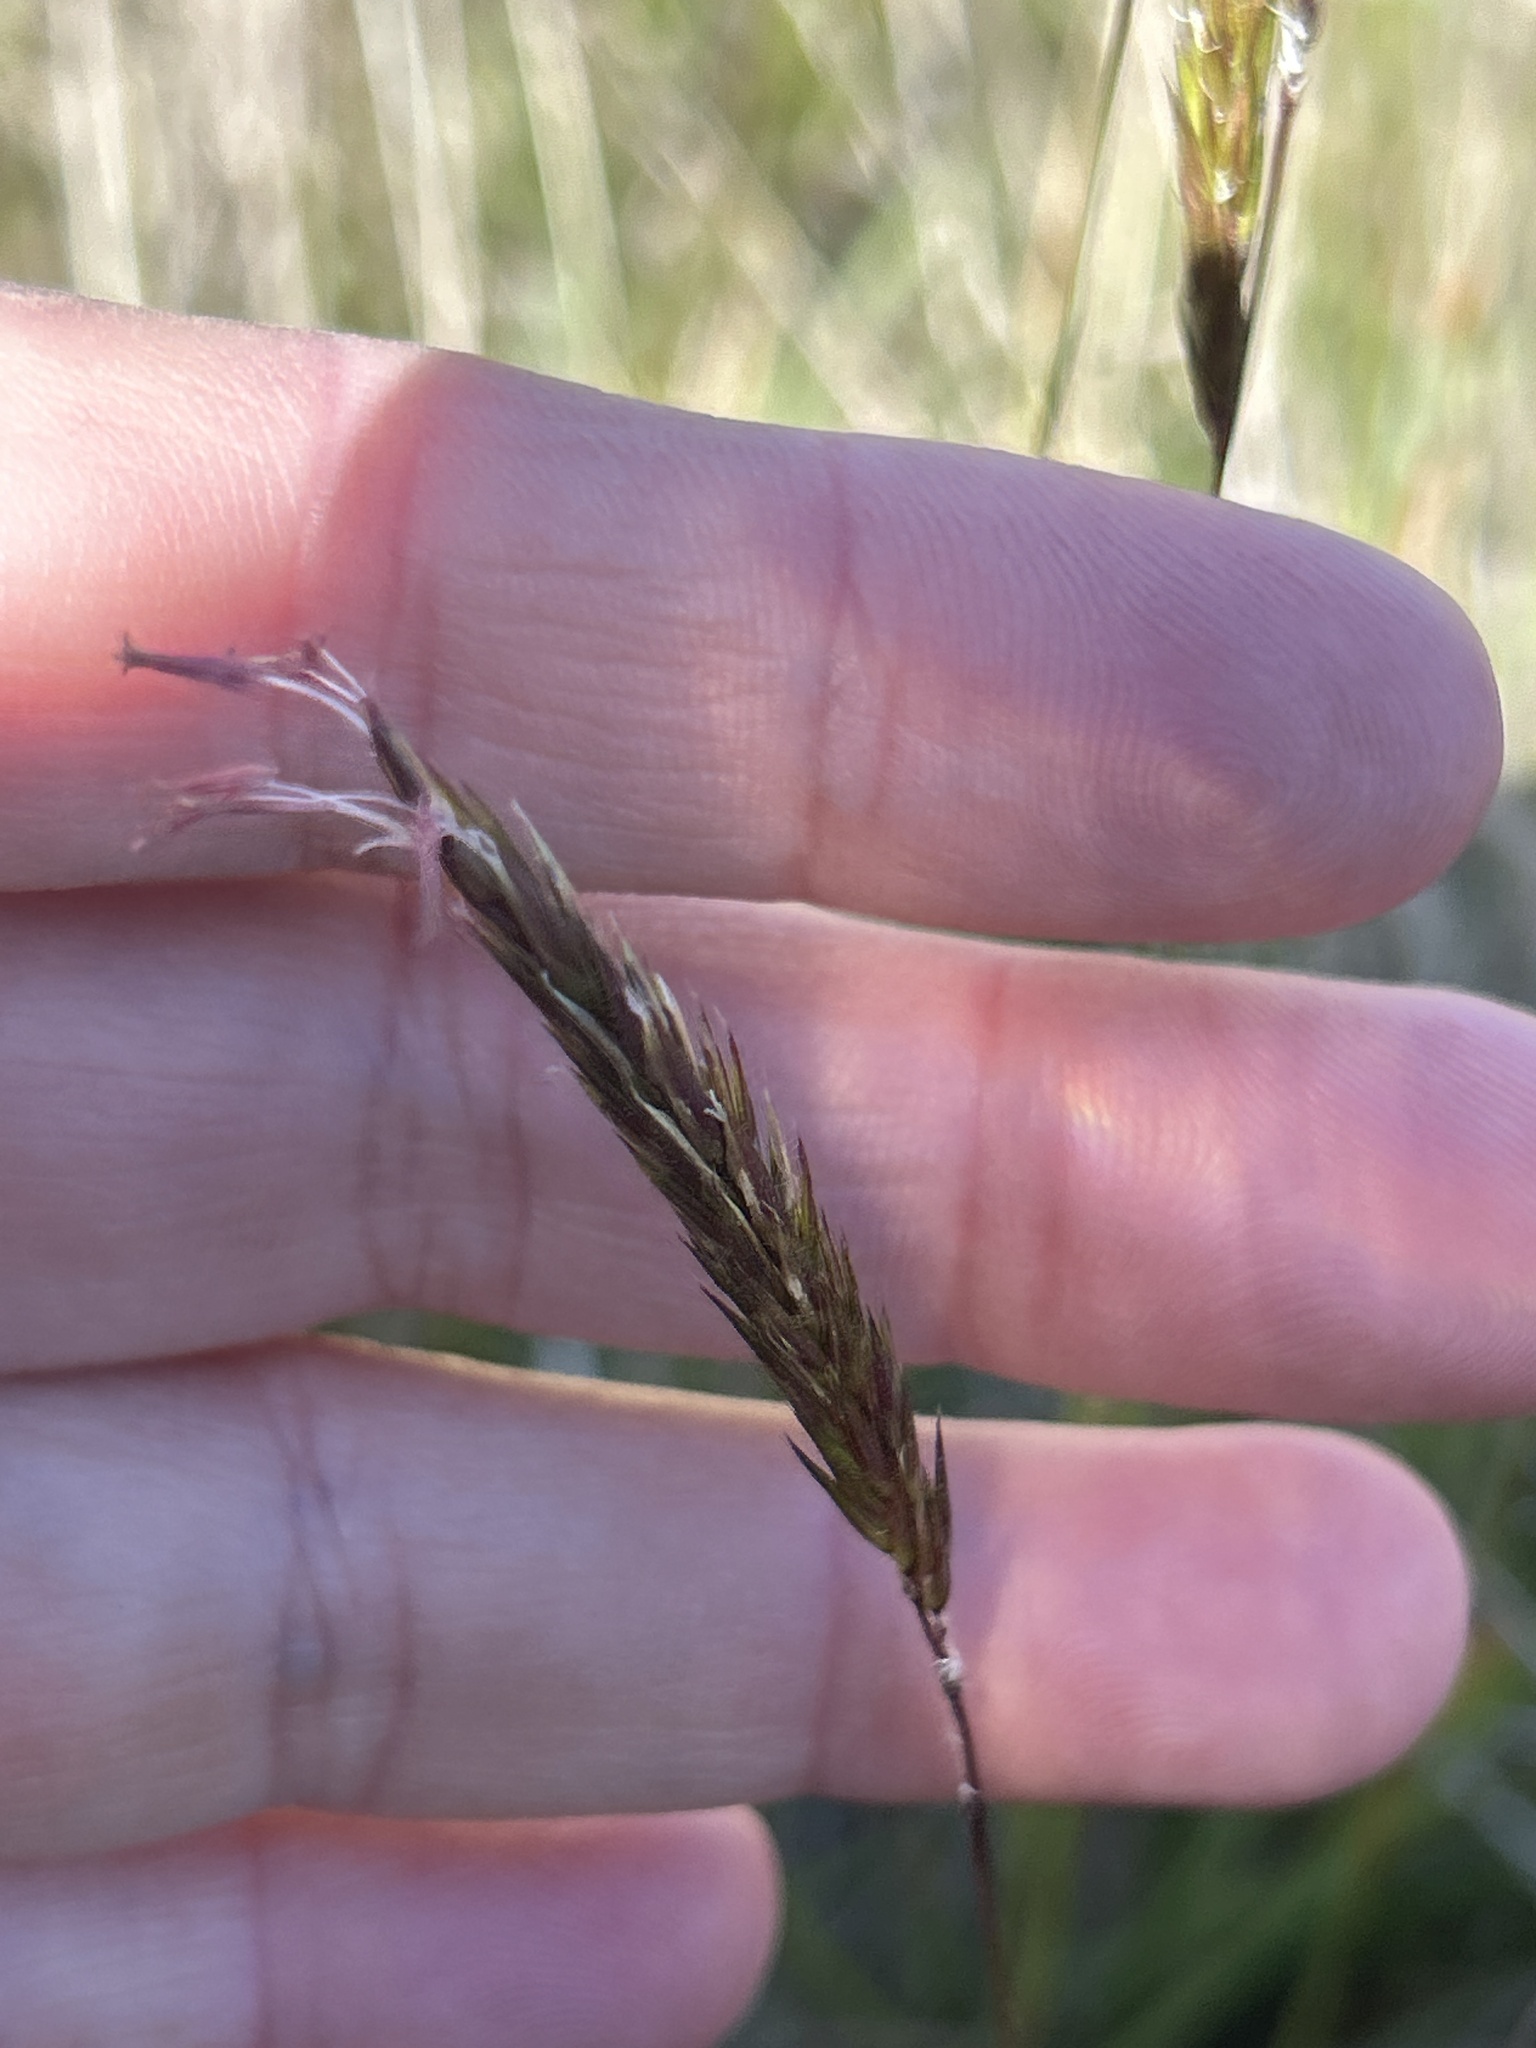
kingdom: Plantae
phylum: Tracheophyta
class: Liliopsida
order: Poales
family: Poaceae
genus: Anthoxanthum
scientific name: Anthoxanthum odoratum
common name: Sweet vernalgrass
